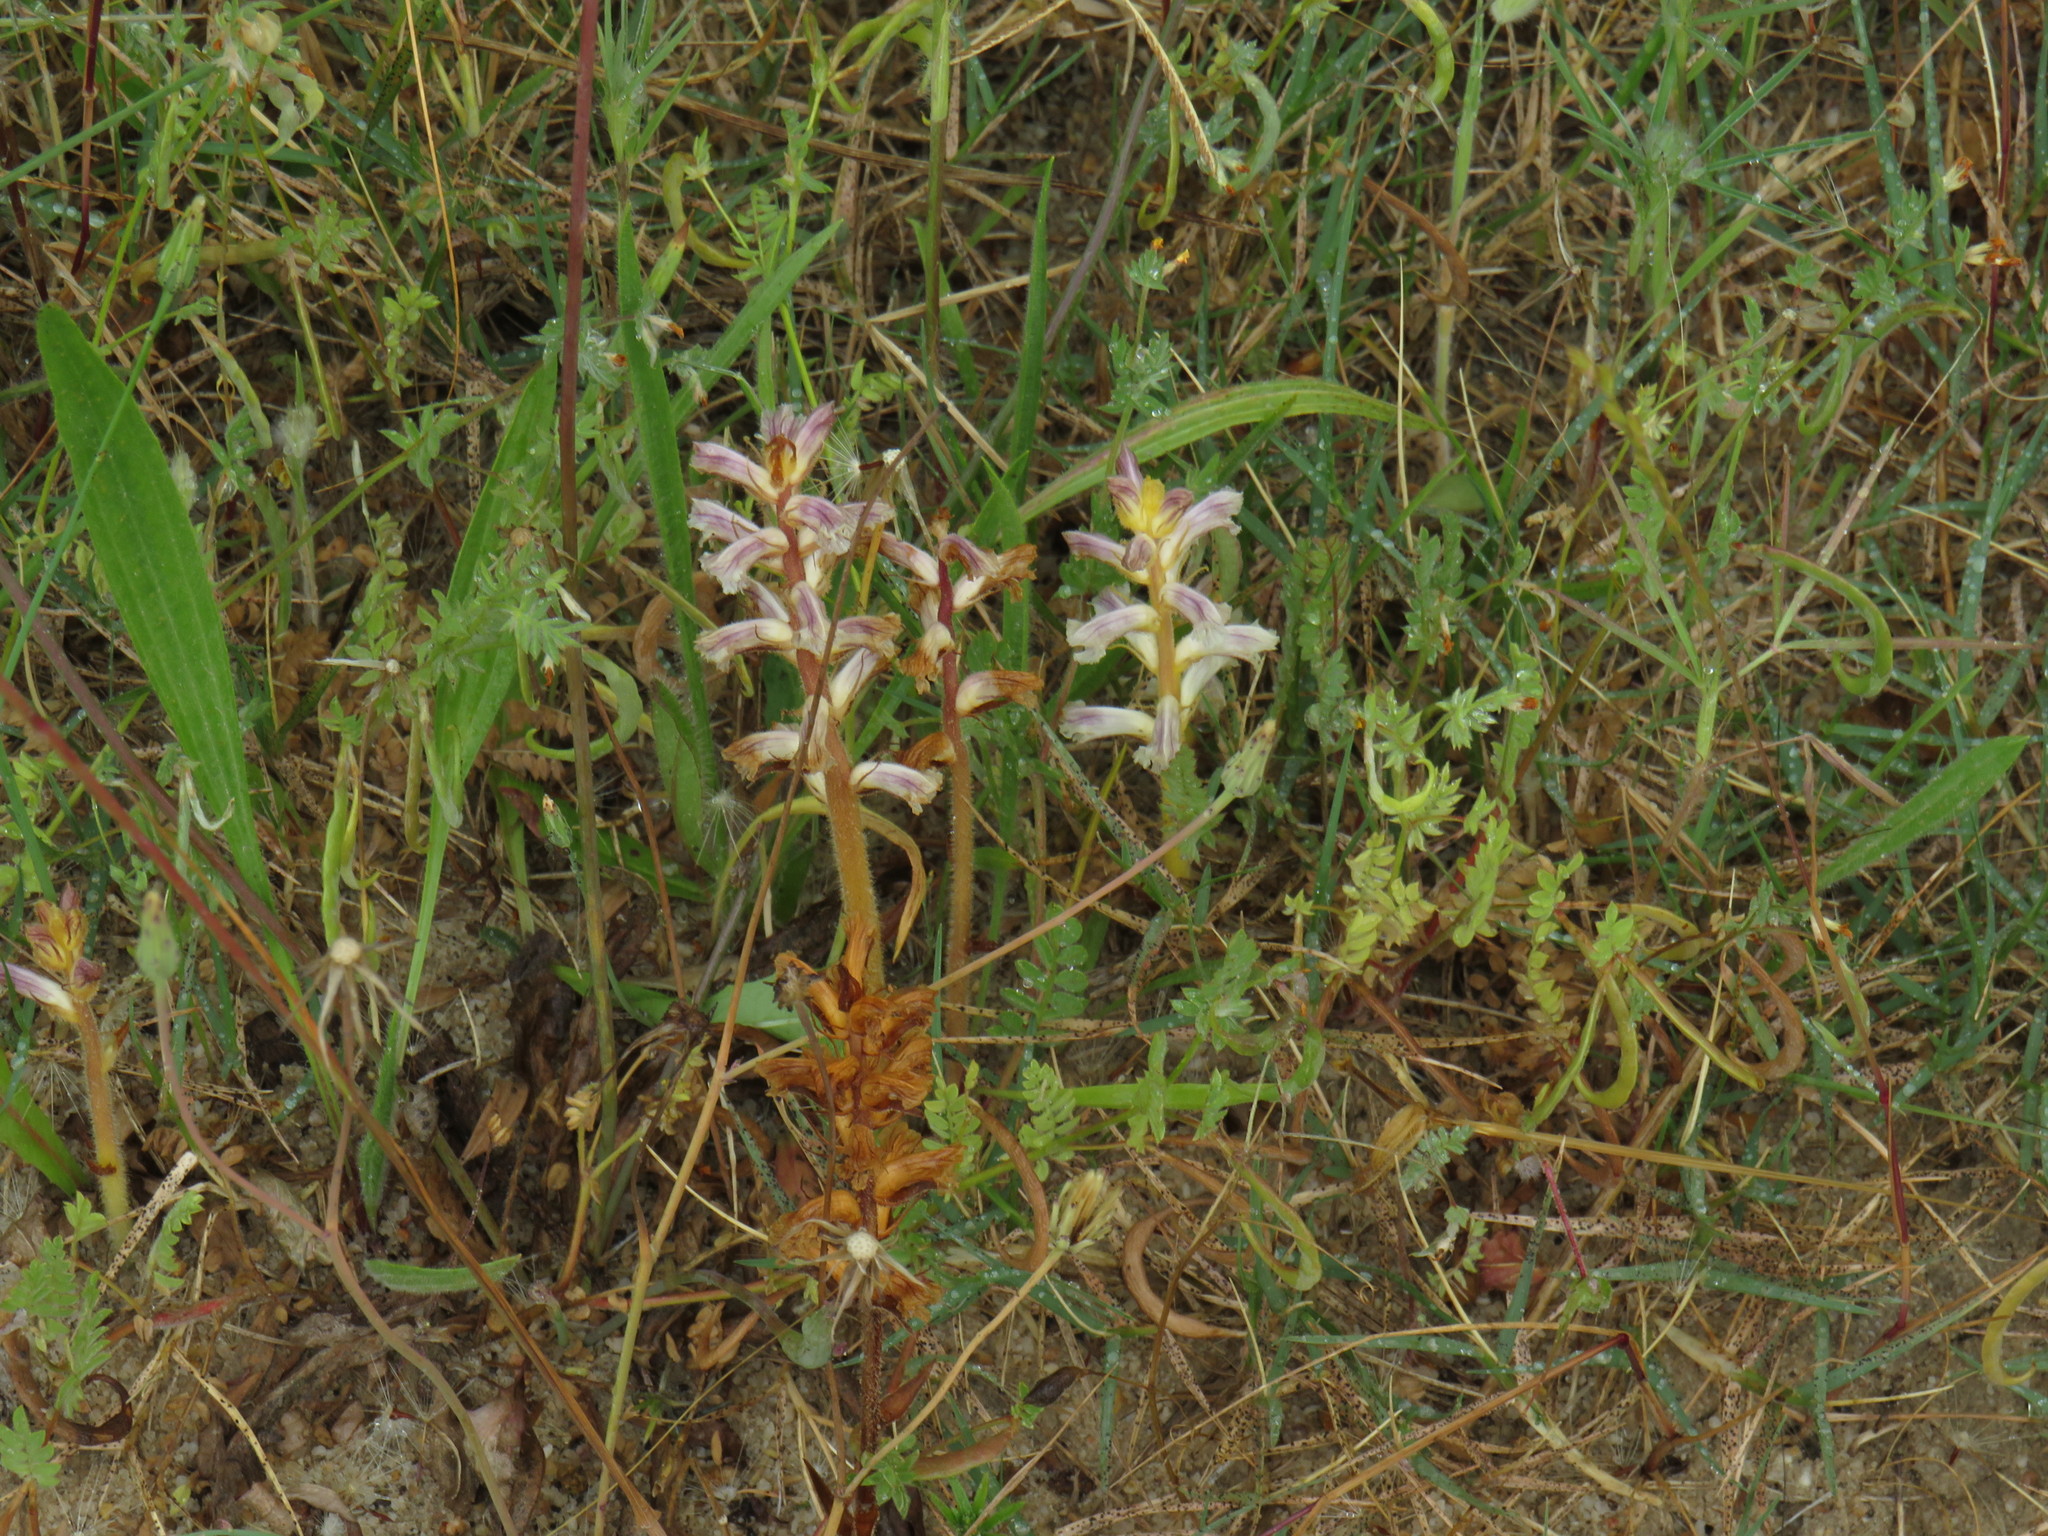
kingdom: Plantae
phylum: Tracheophyta
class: Magnoliopsida
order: Lamiales
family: Orobanchaceae
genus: Orobanche
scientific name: Orobanche minor
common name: Common broomrape
